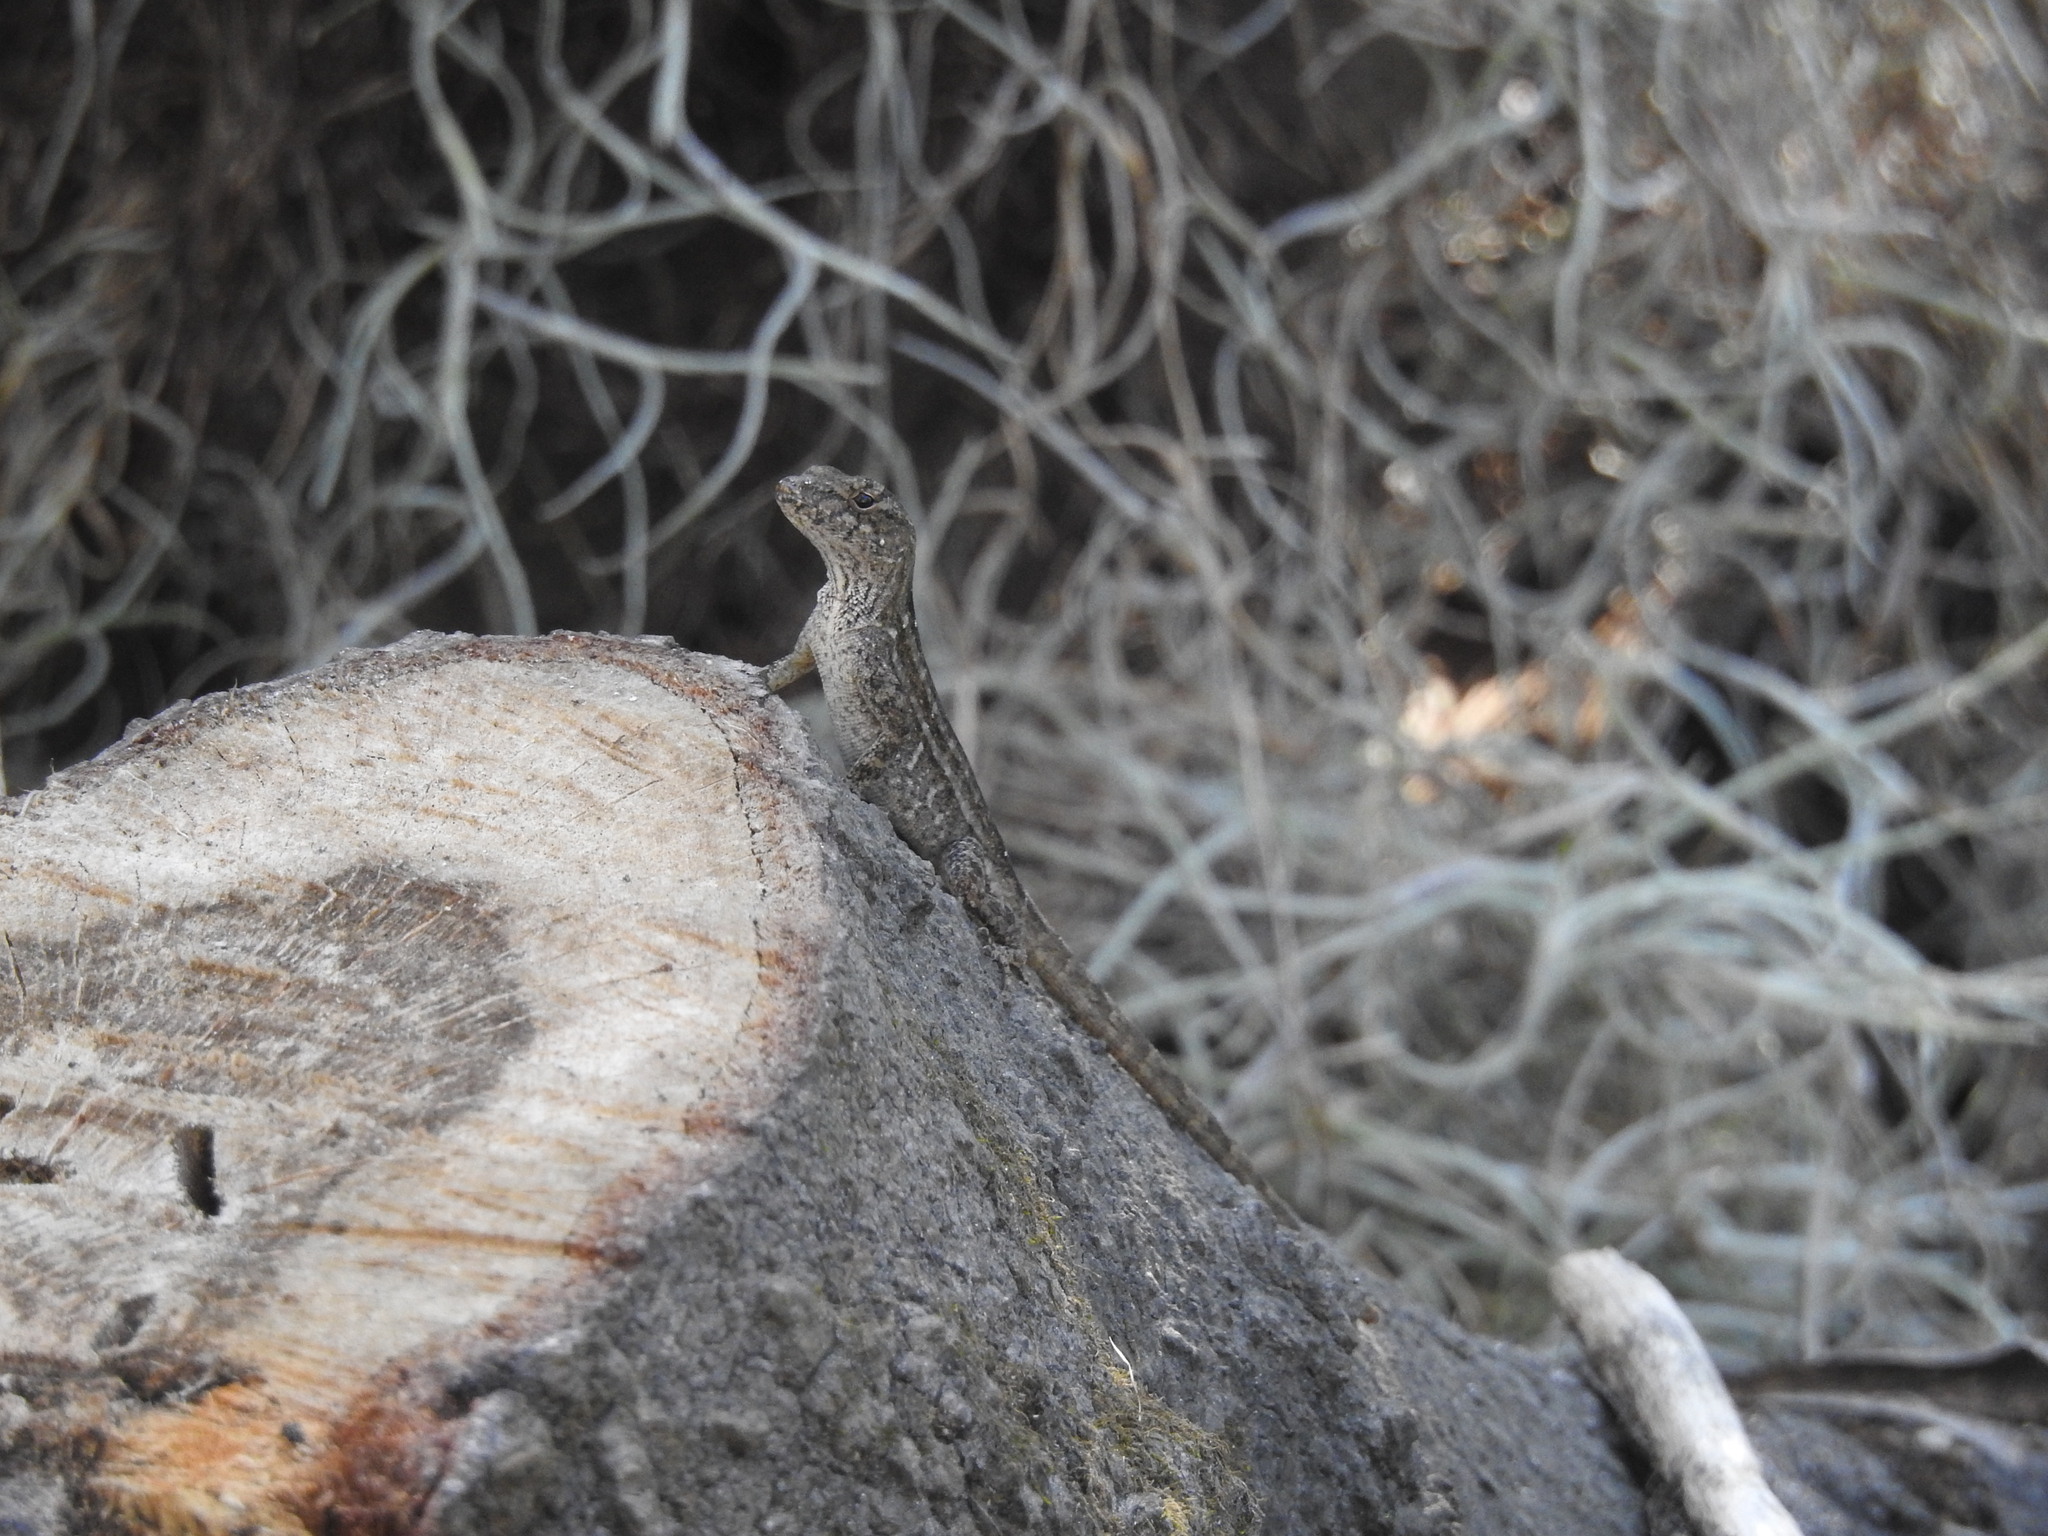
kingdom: Animalia
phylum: Chordata
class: Squamata
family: Dactyloidae
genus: Anolis
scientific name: Anolis sagrei
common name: Brown anole
